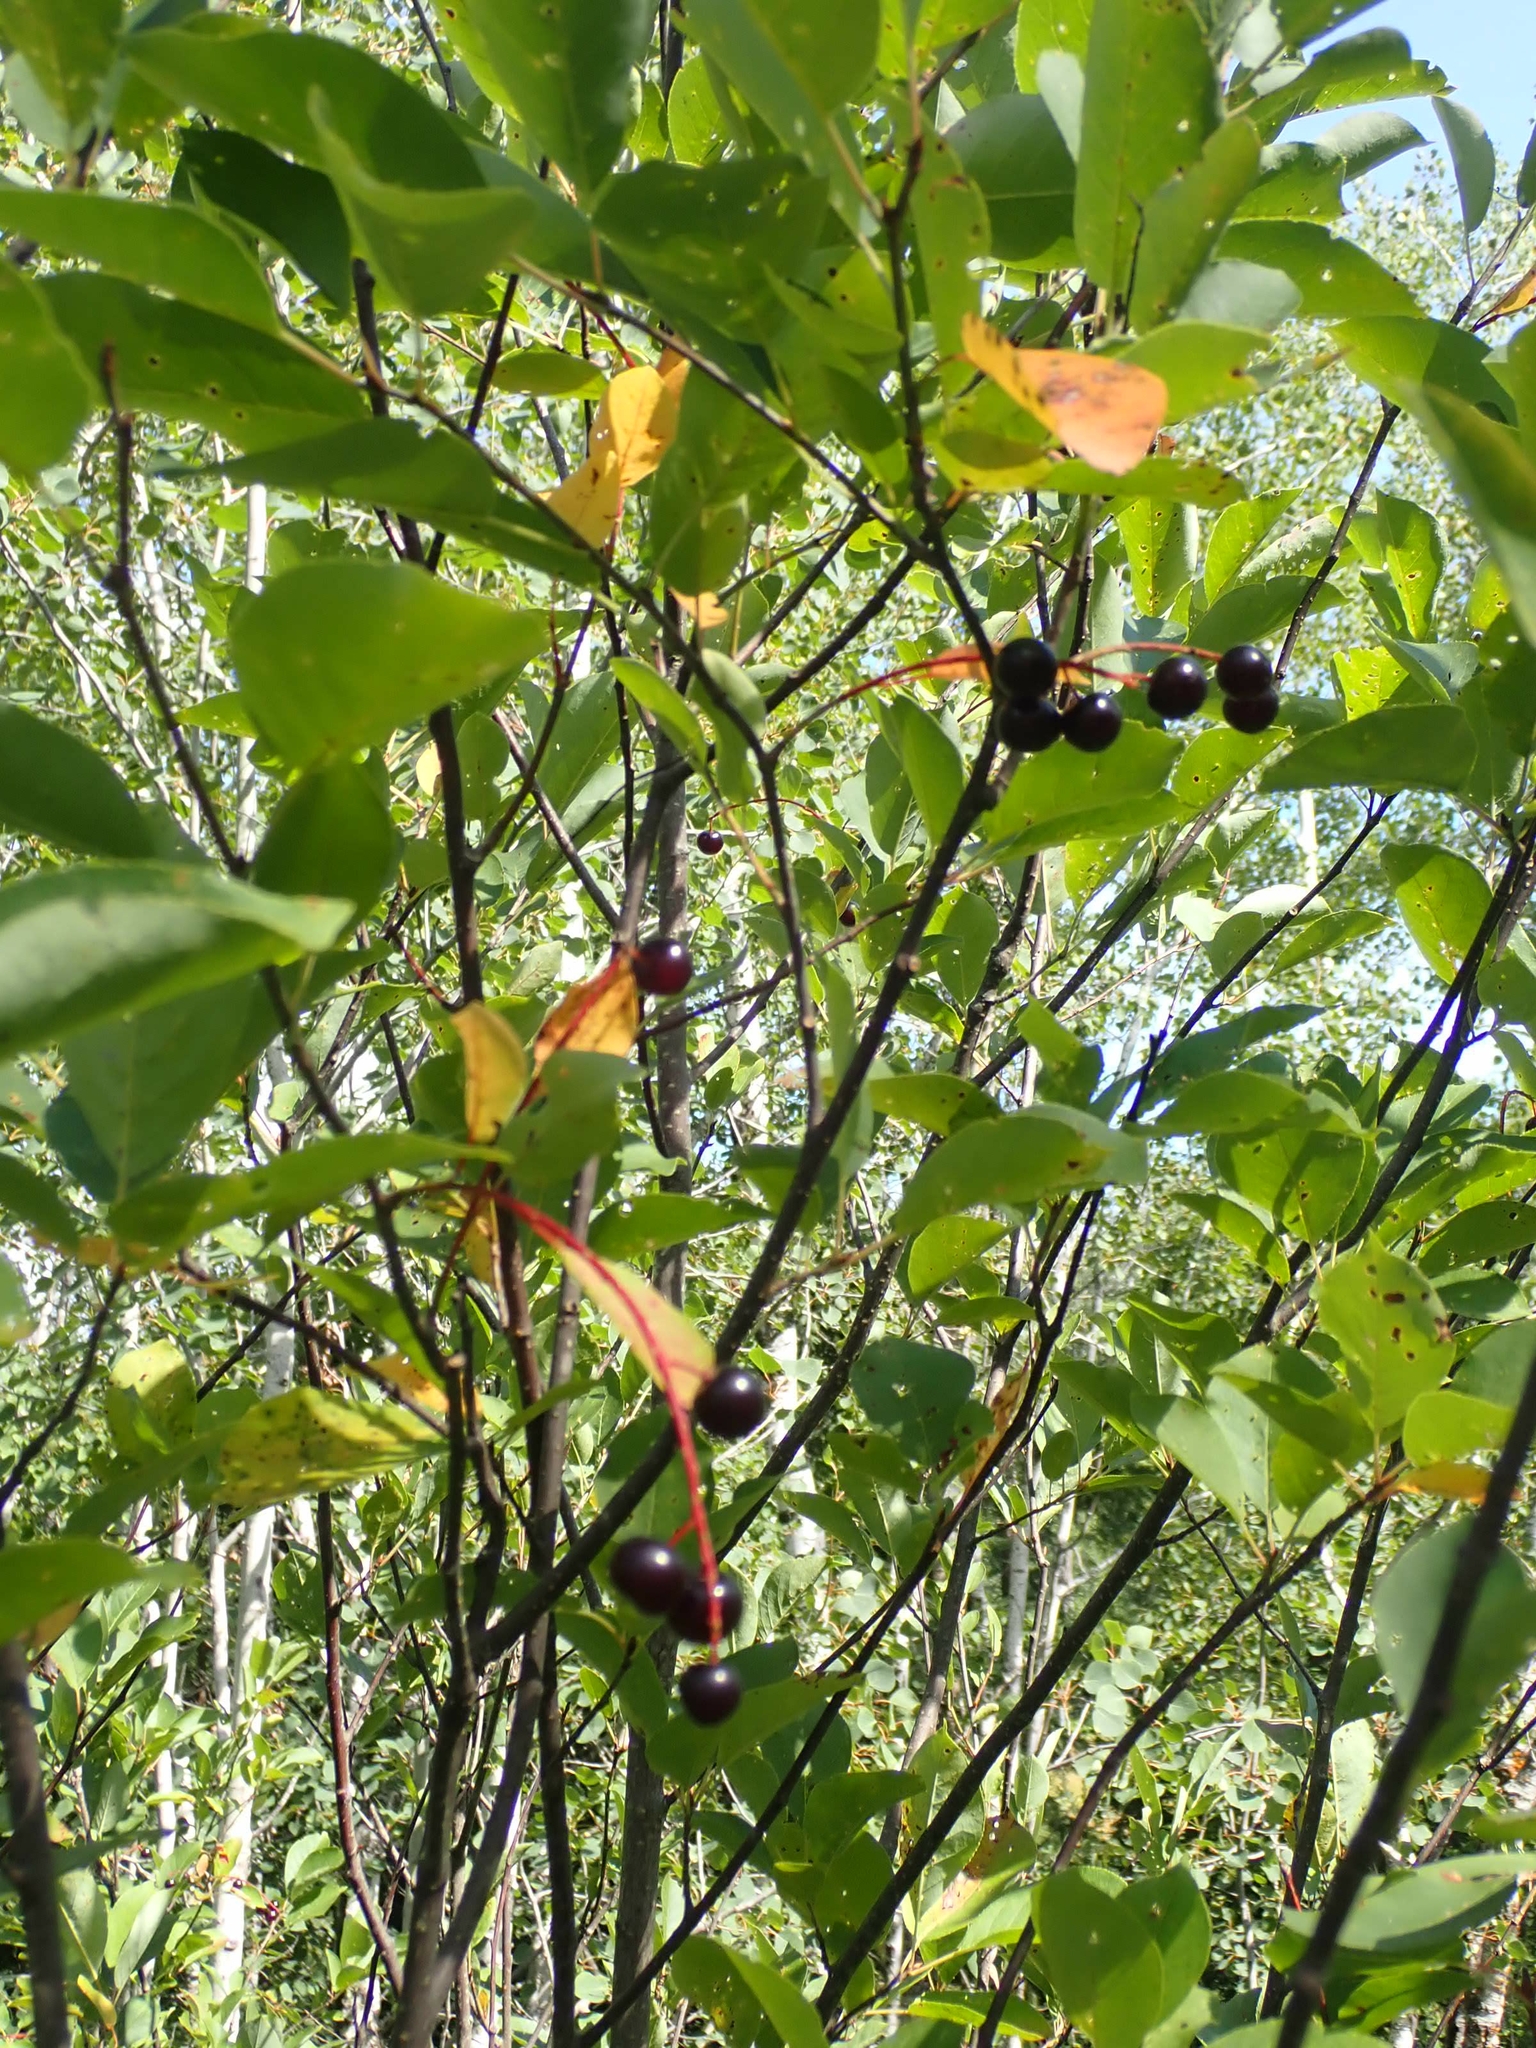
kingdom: Plantae
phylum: Tracheophyta
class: Magnoliopsida
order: Rosales
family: Rosaceae
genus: Prunus
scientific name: Prunus virginiana
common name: Chokecherry
